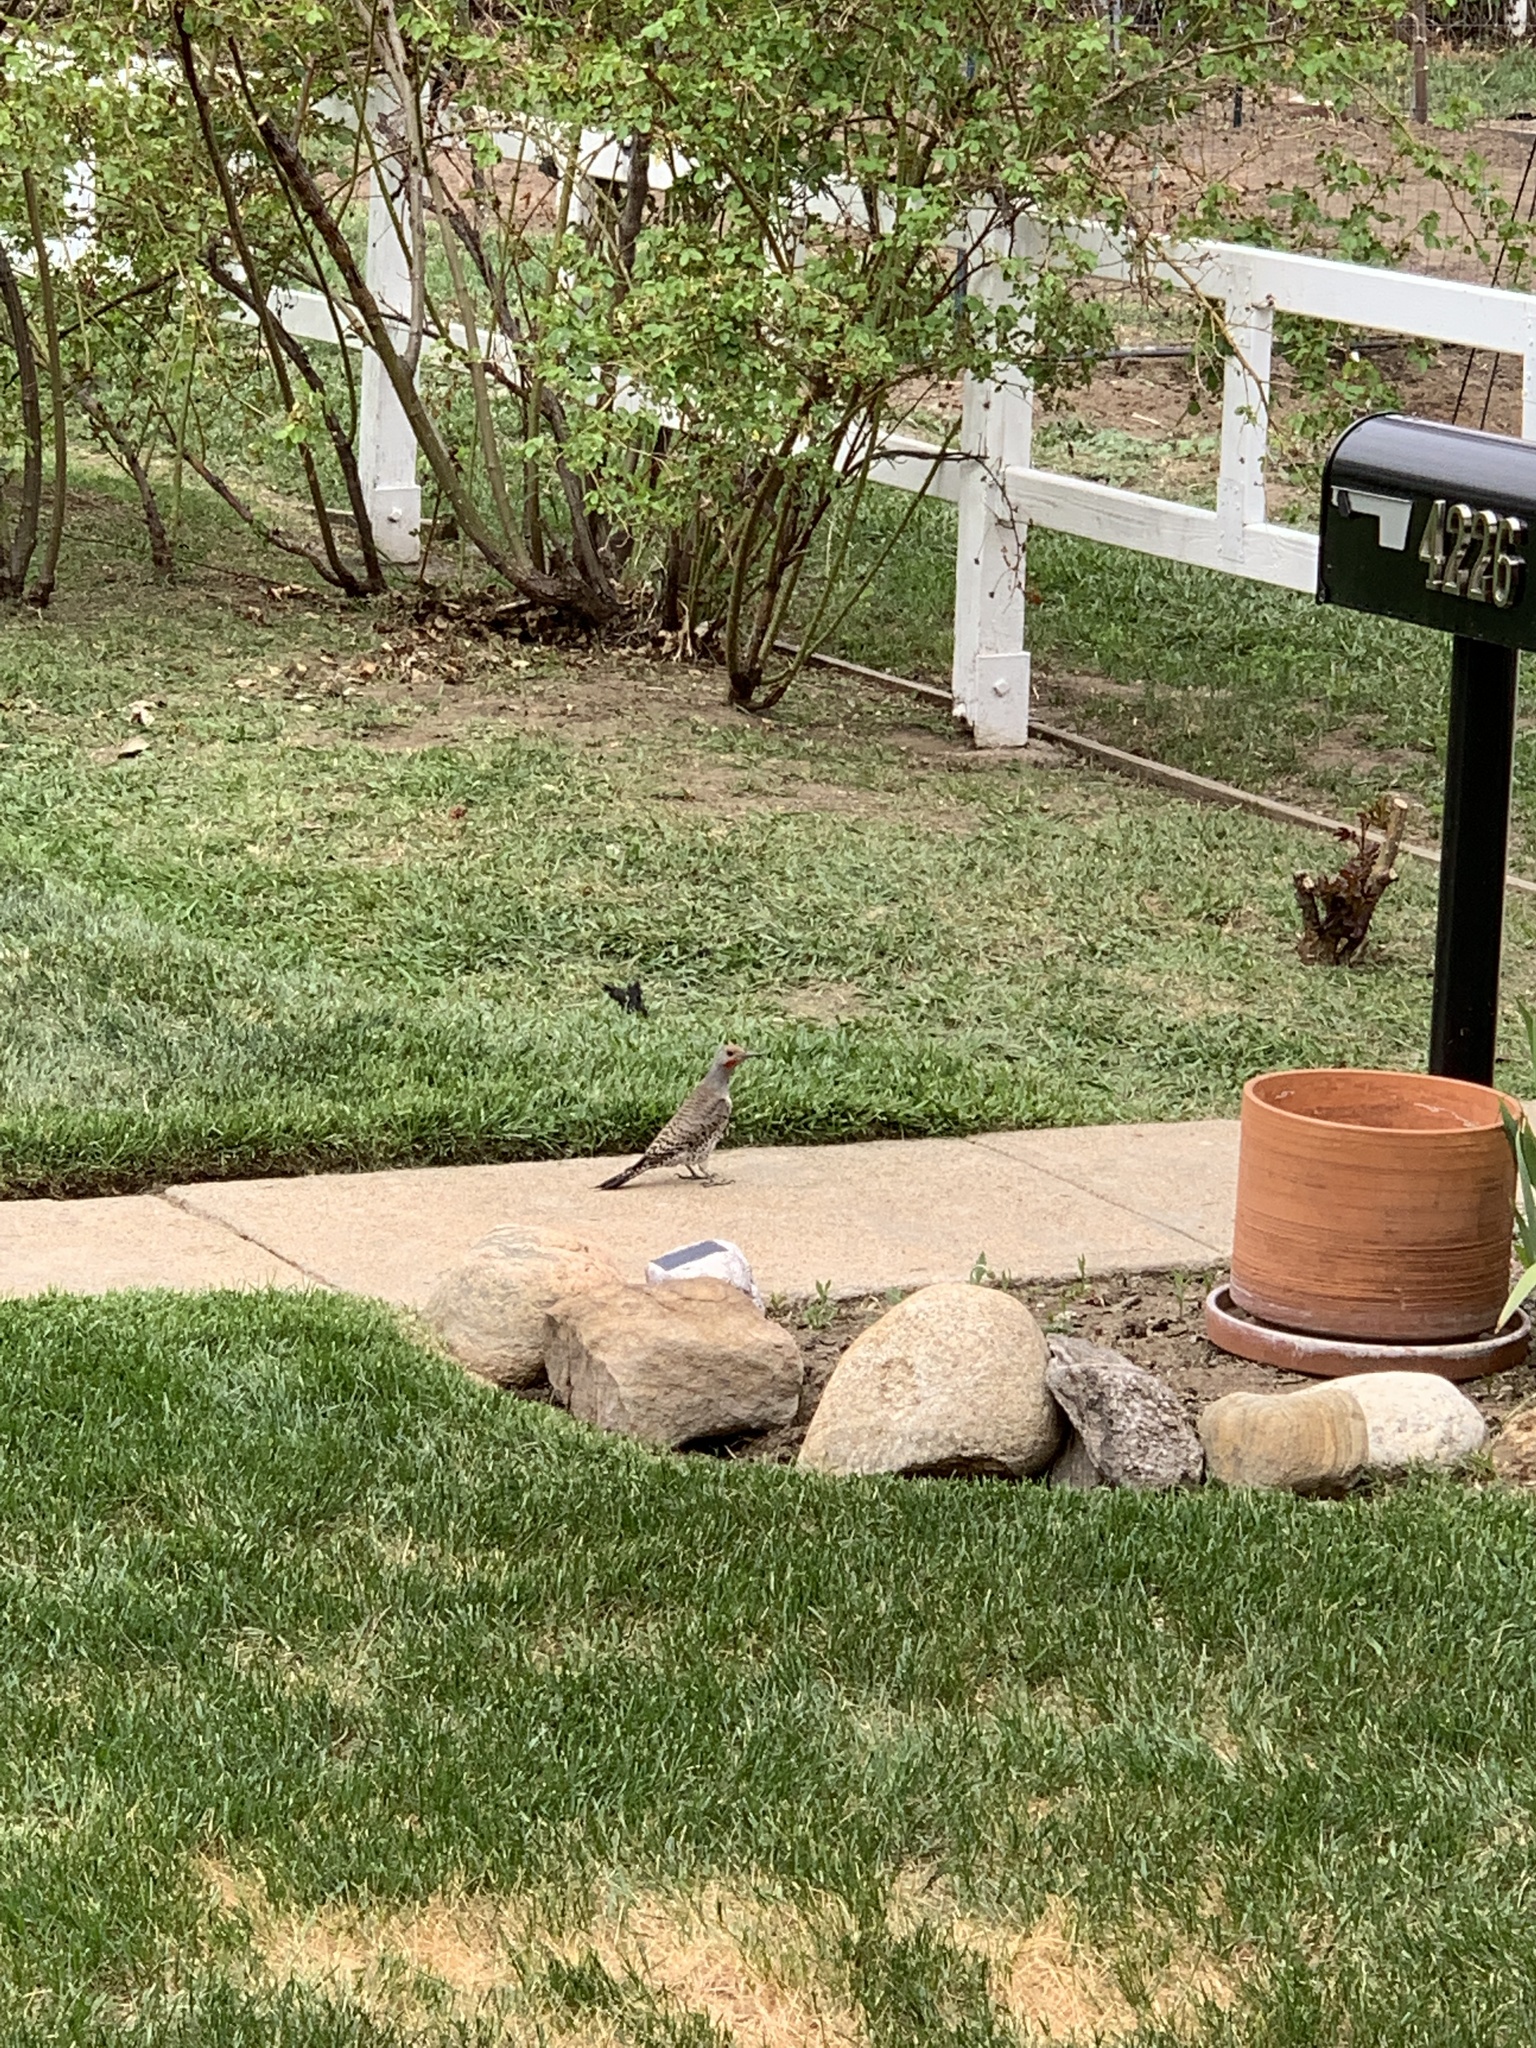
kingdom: Animalia
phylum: Chordata
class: Aves
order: Piciformes
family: Picidae
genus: Colaptes
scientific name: Colaptes auratus
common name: Northern flicker
